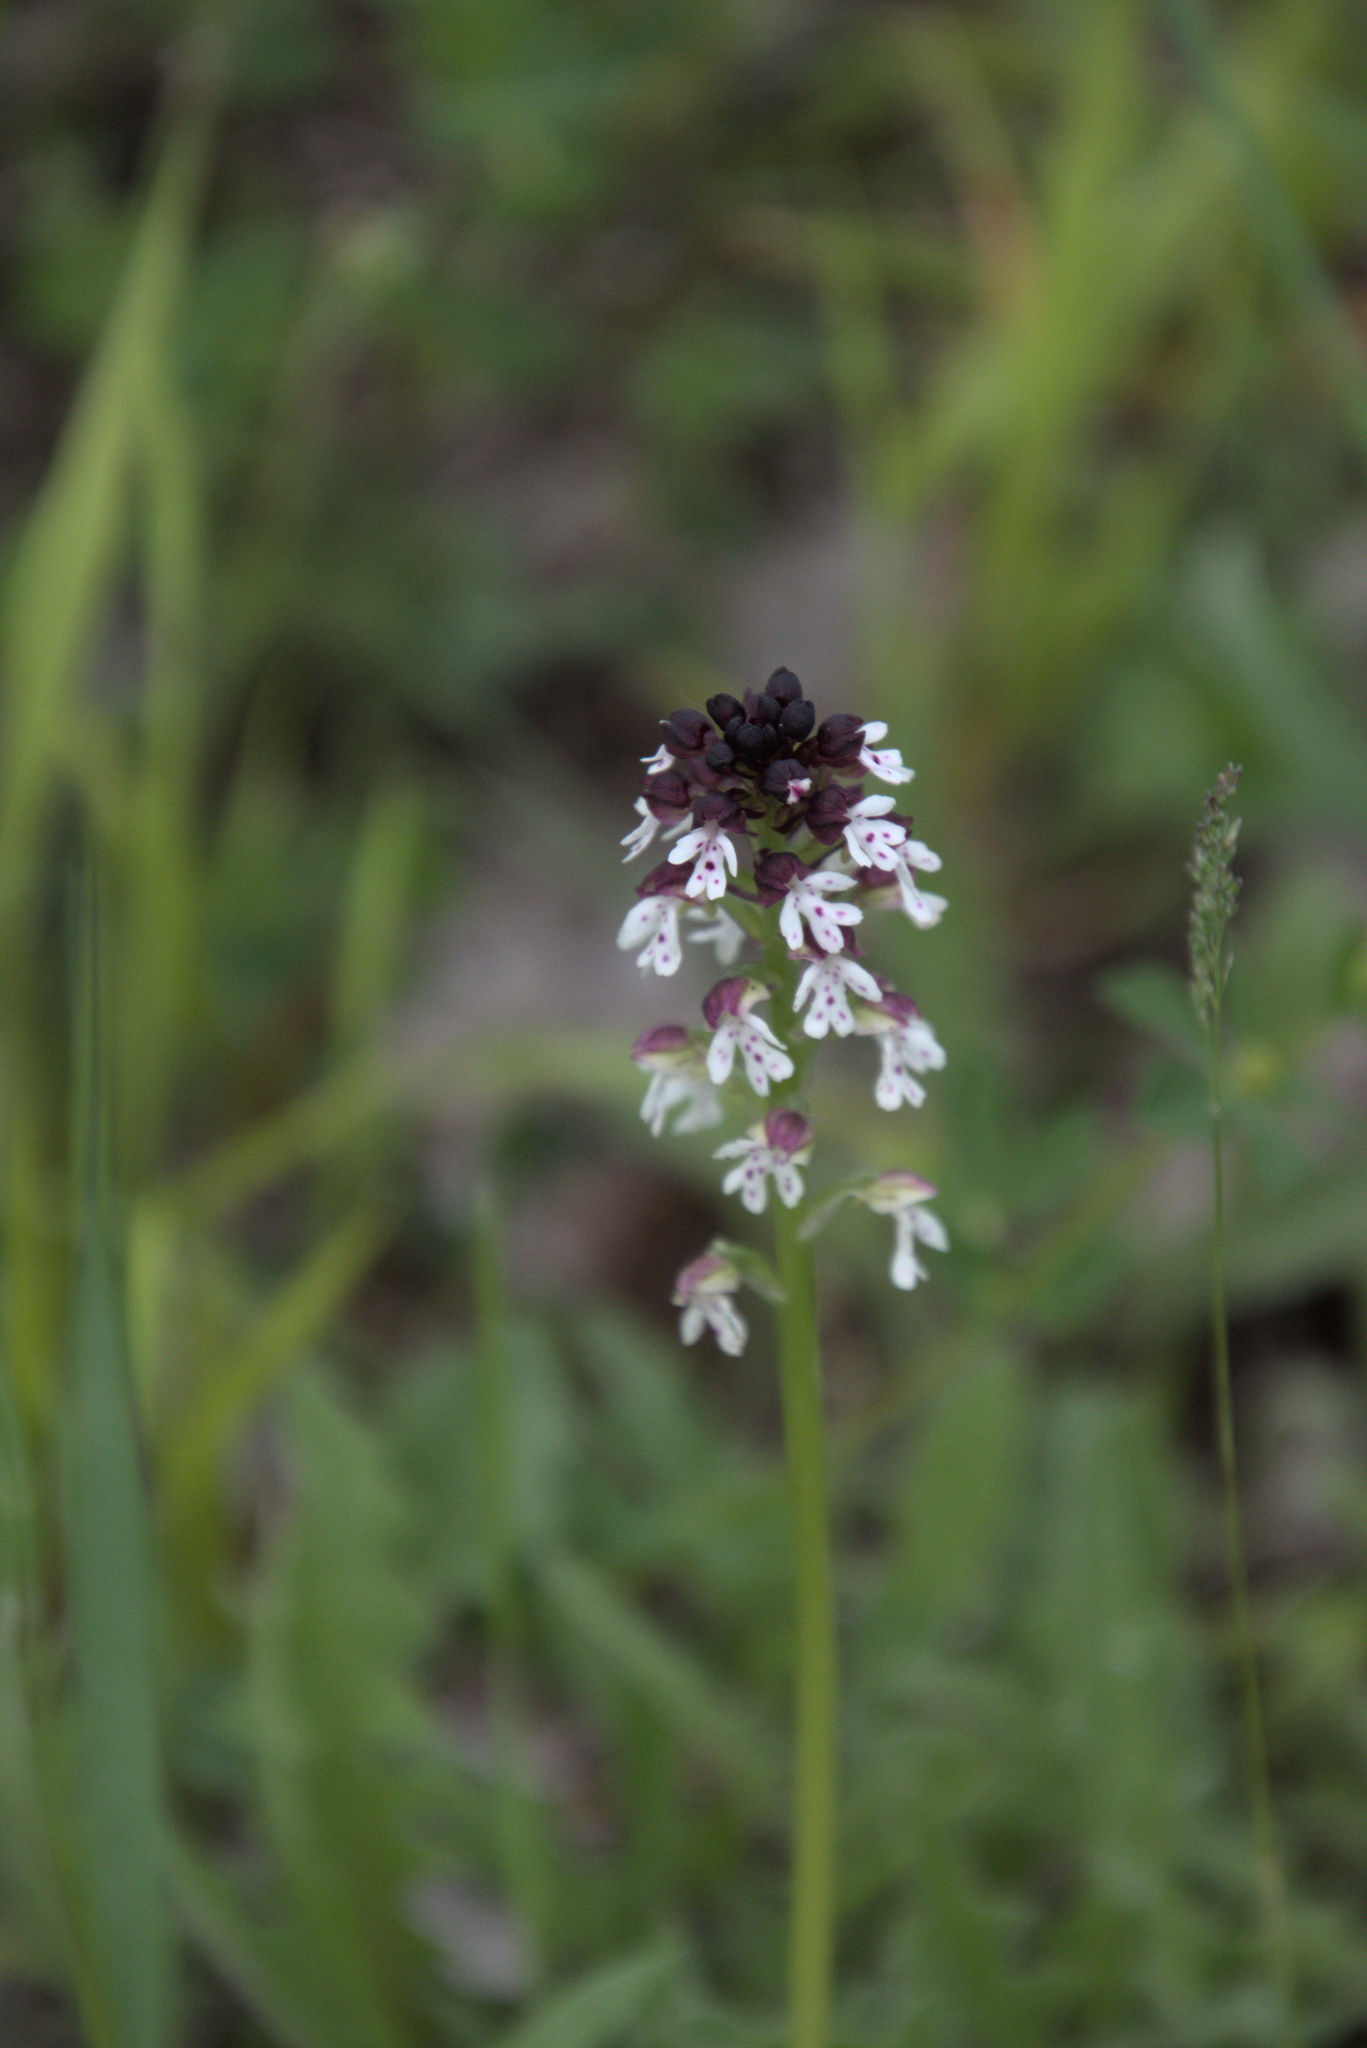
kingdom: Plantae
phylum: Tracheophyta
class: Liliopsida
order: Asparagales
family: Orchidaceae
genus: Neotinea
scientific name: Neotinea ustulata
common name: Burnt orchid
